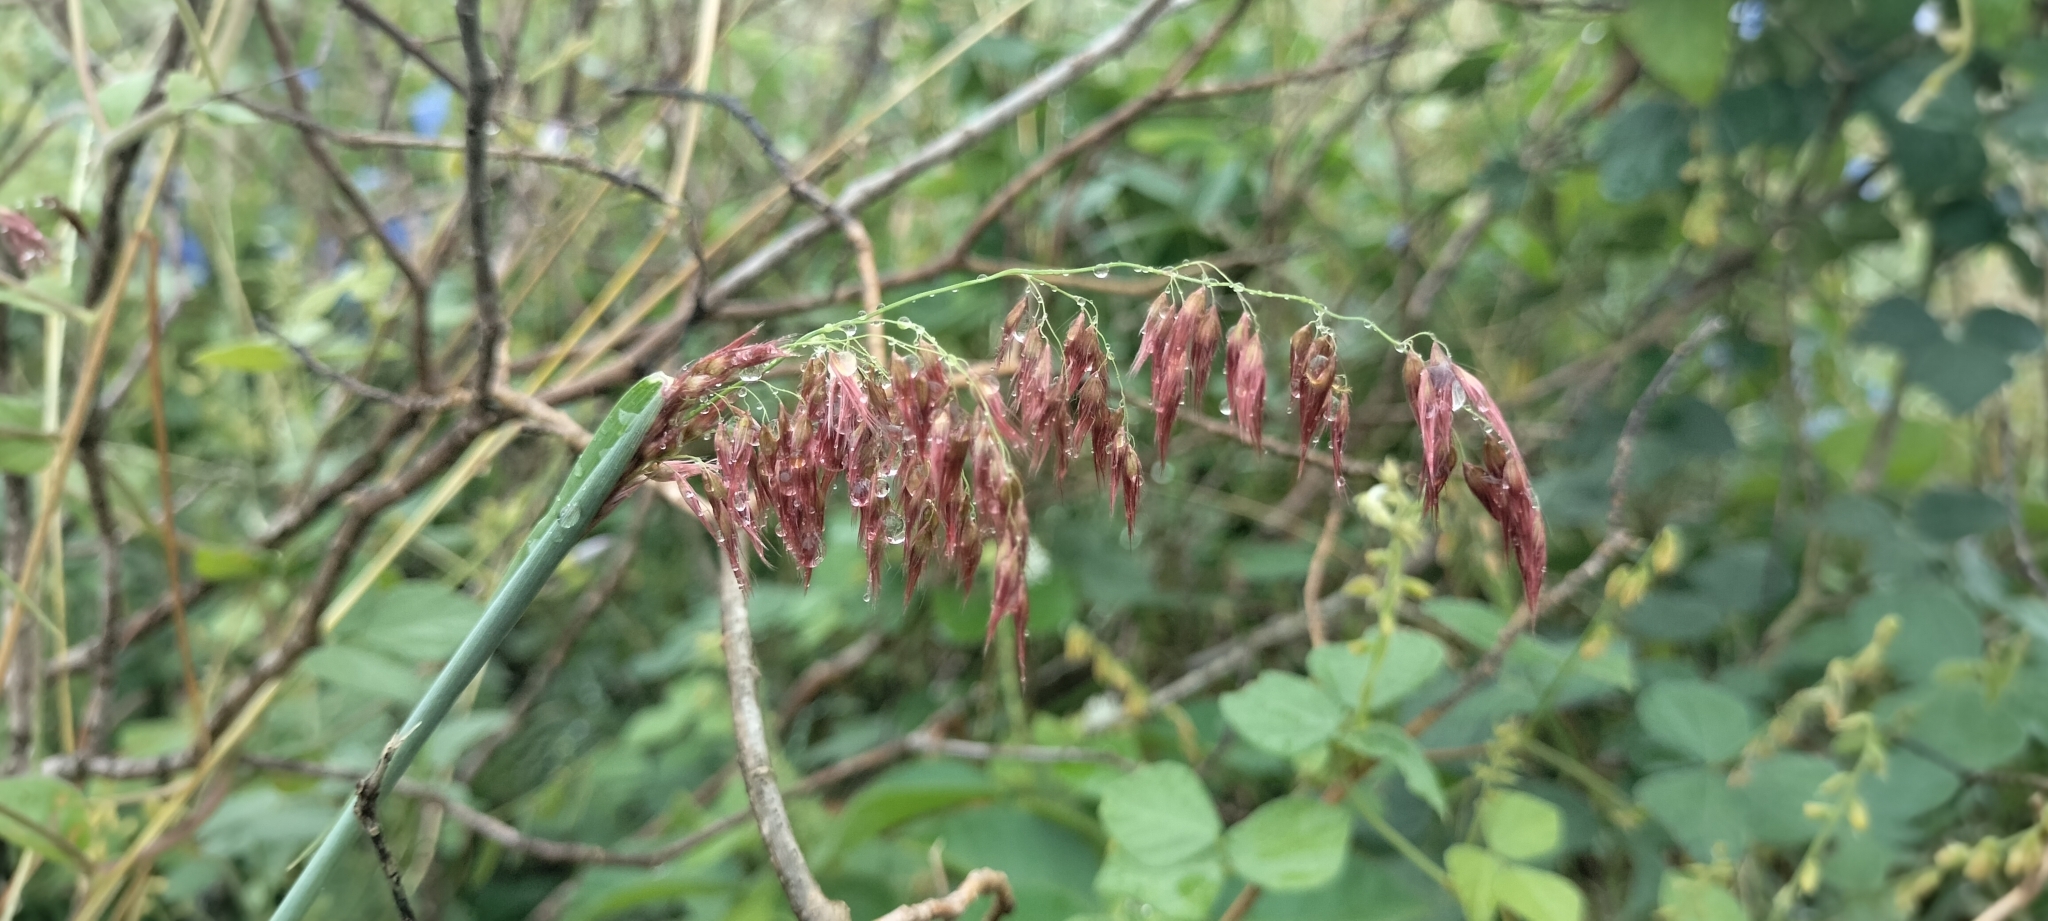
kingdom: Plantae
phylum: Tracheophyta
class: Liliopsida
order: Poales
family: Poaceae
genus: Melinis
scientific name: Melinis repens
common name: Rose natal grass
